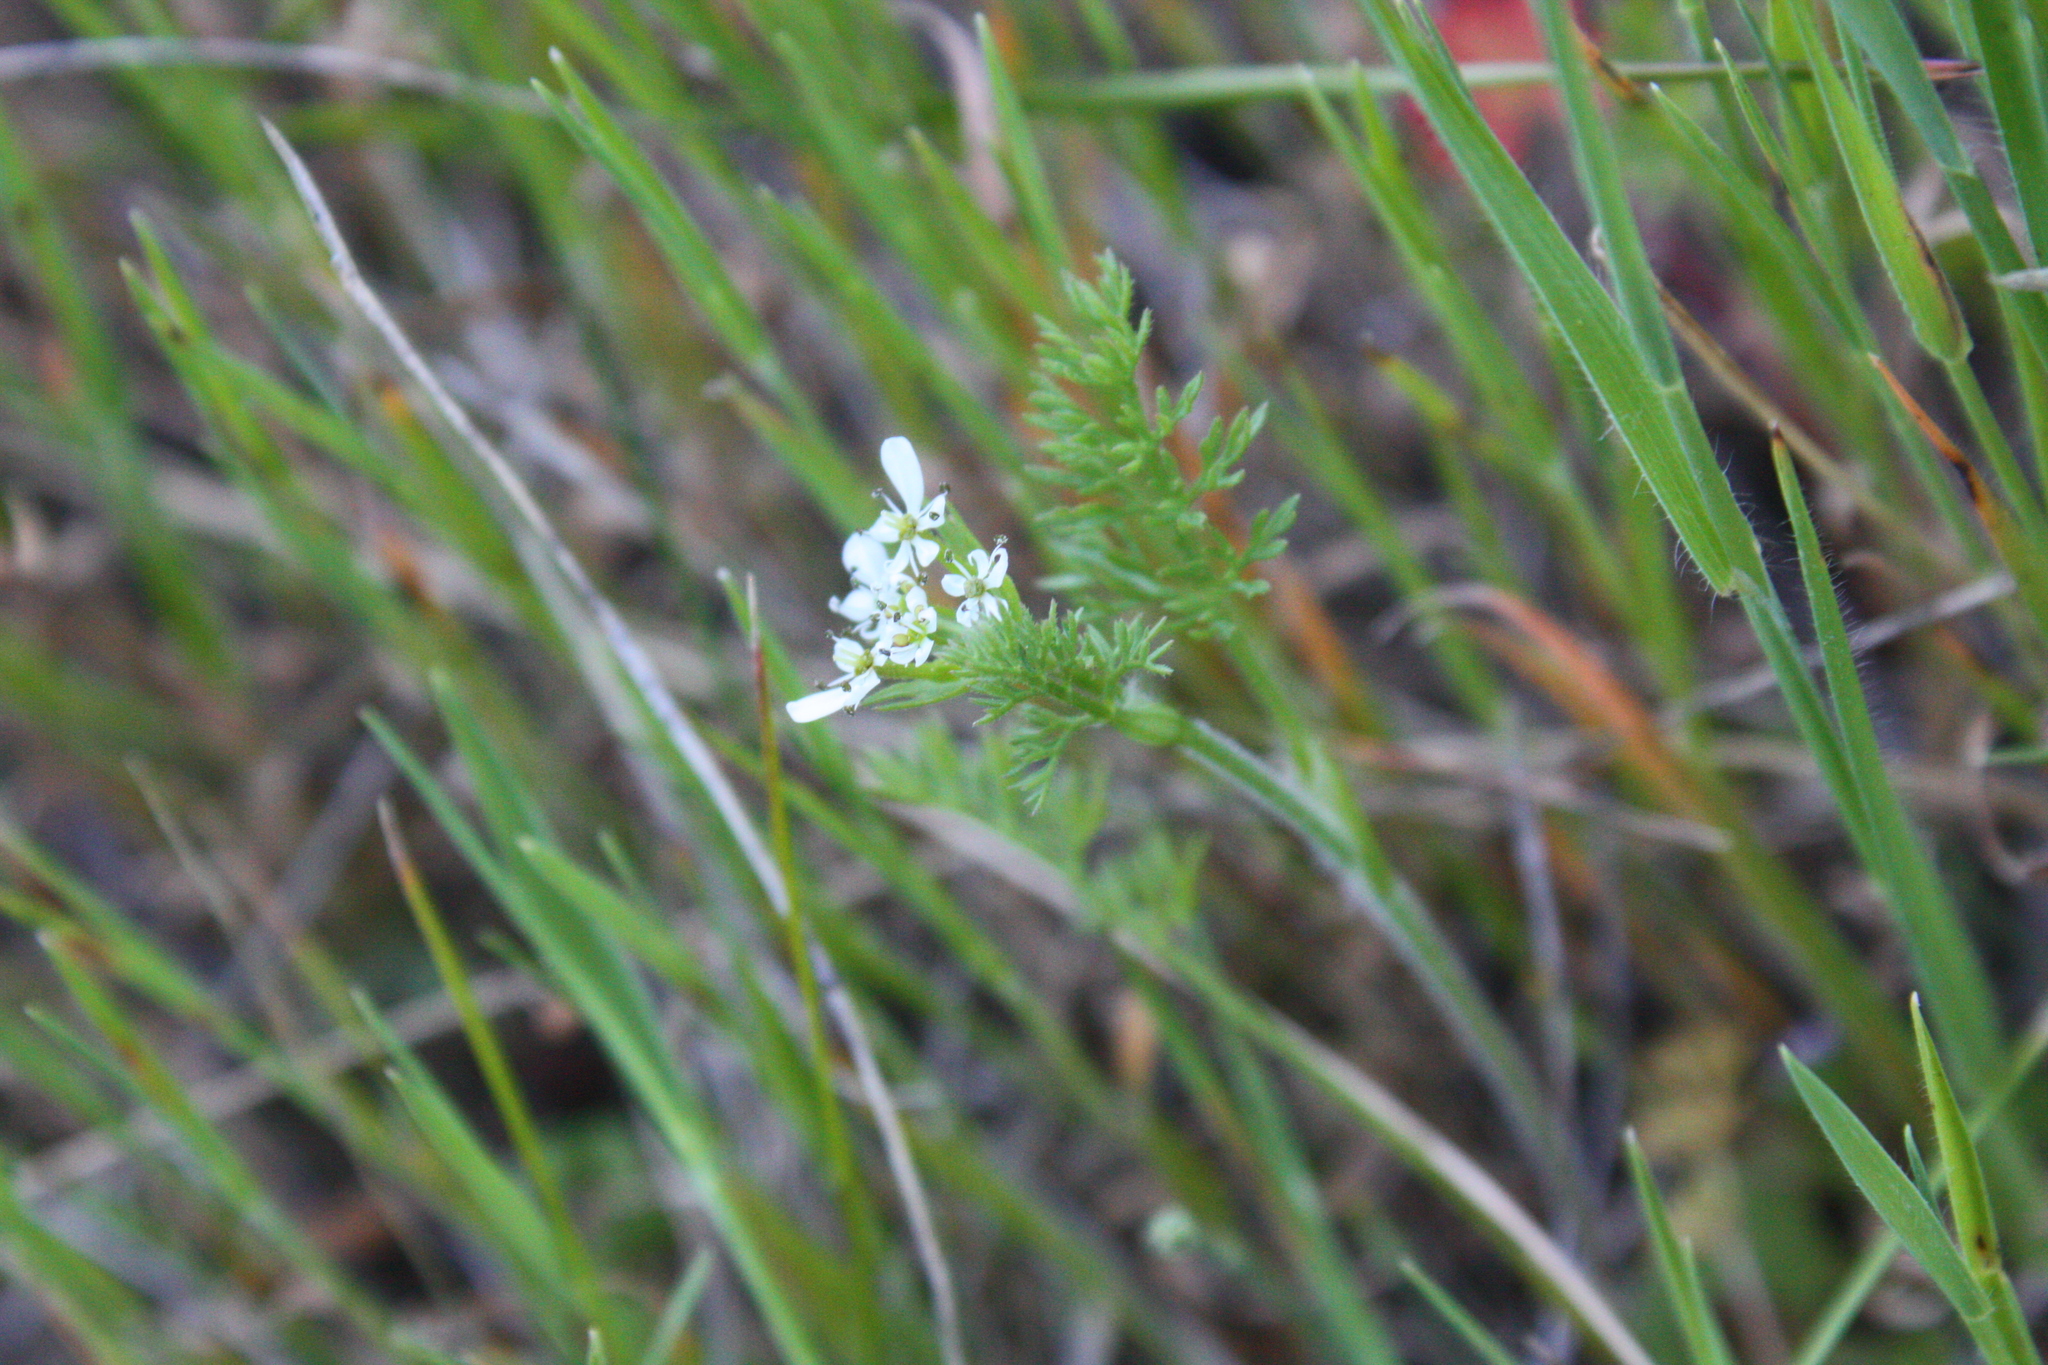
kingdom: Plantae
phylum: Tracheophyta
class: Magnoliopsida
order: Apiales
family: Apiaceae
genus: Scandix
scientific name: Scandix pecten-veneris
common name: Shepherd's-needle
